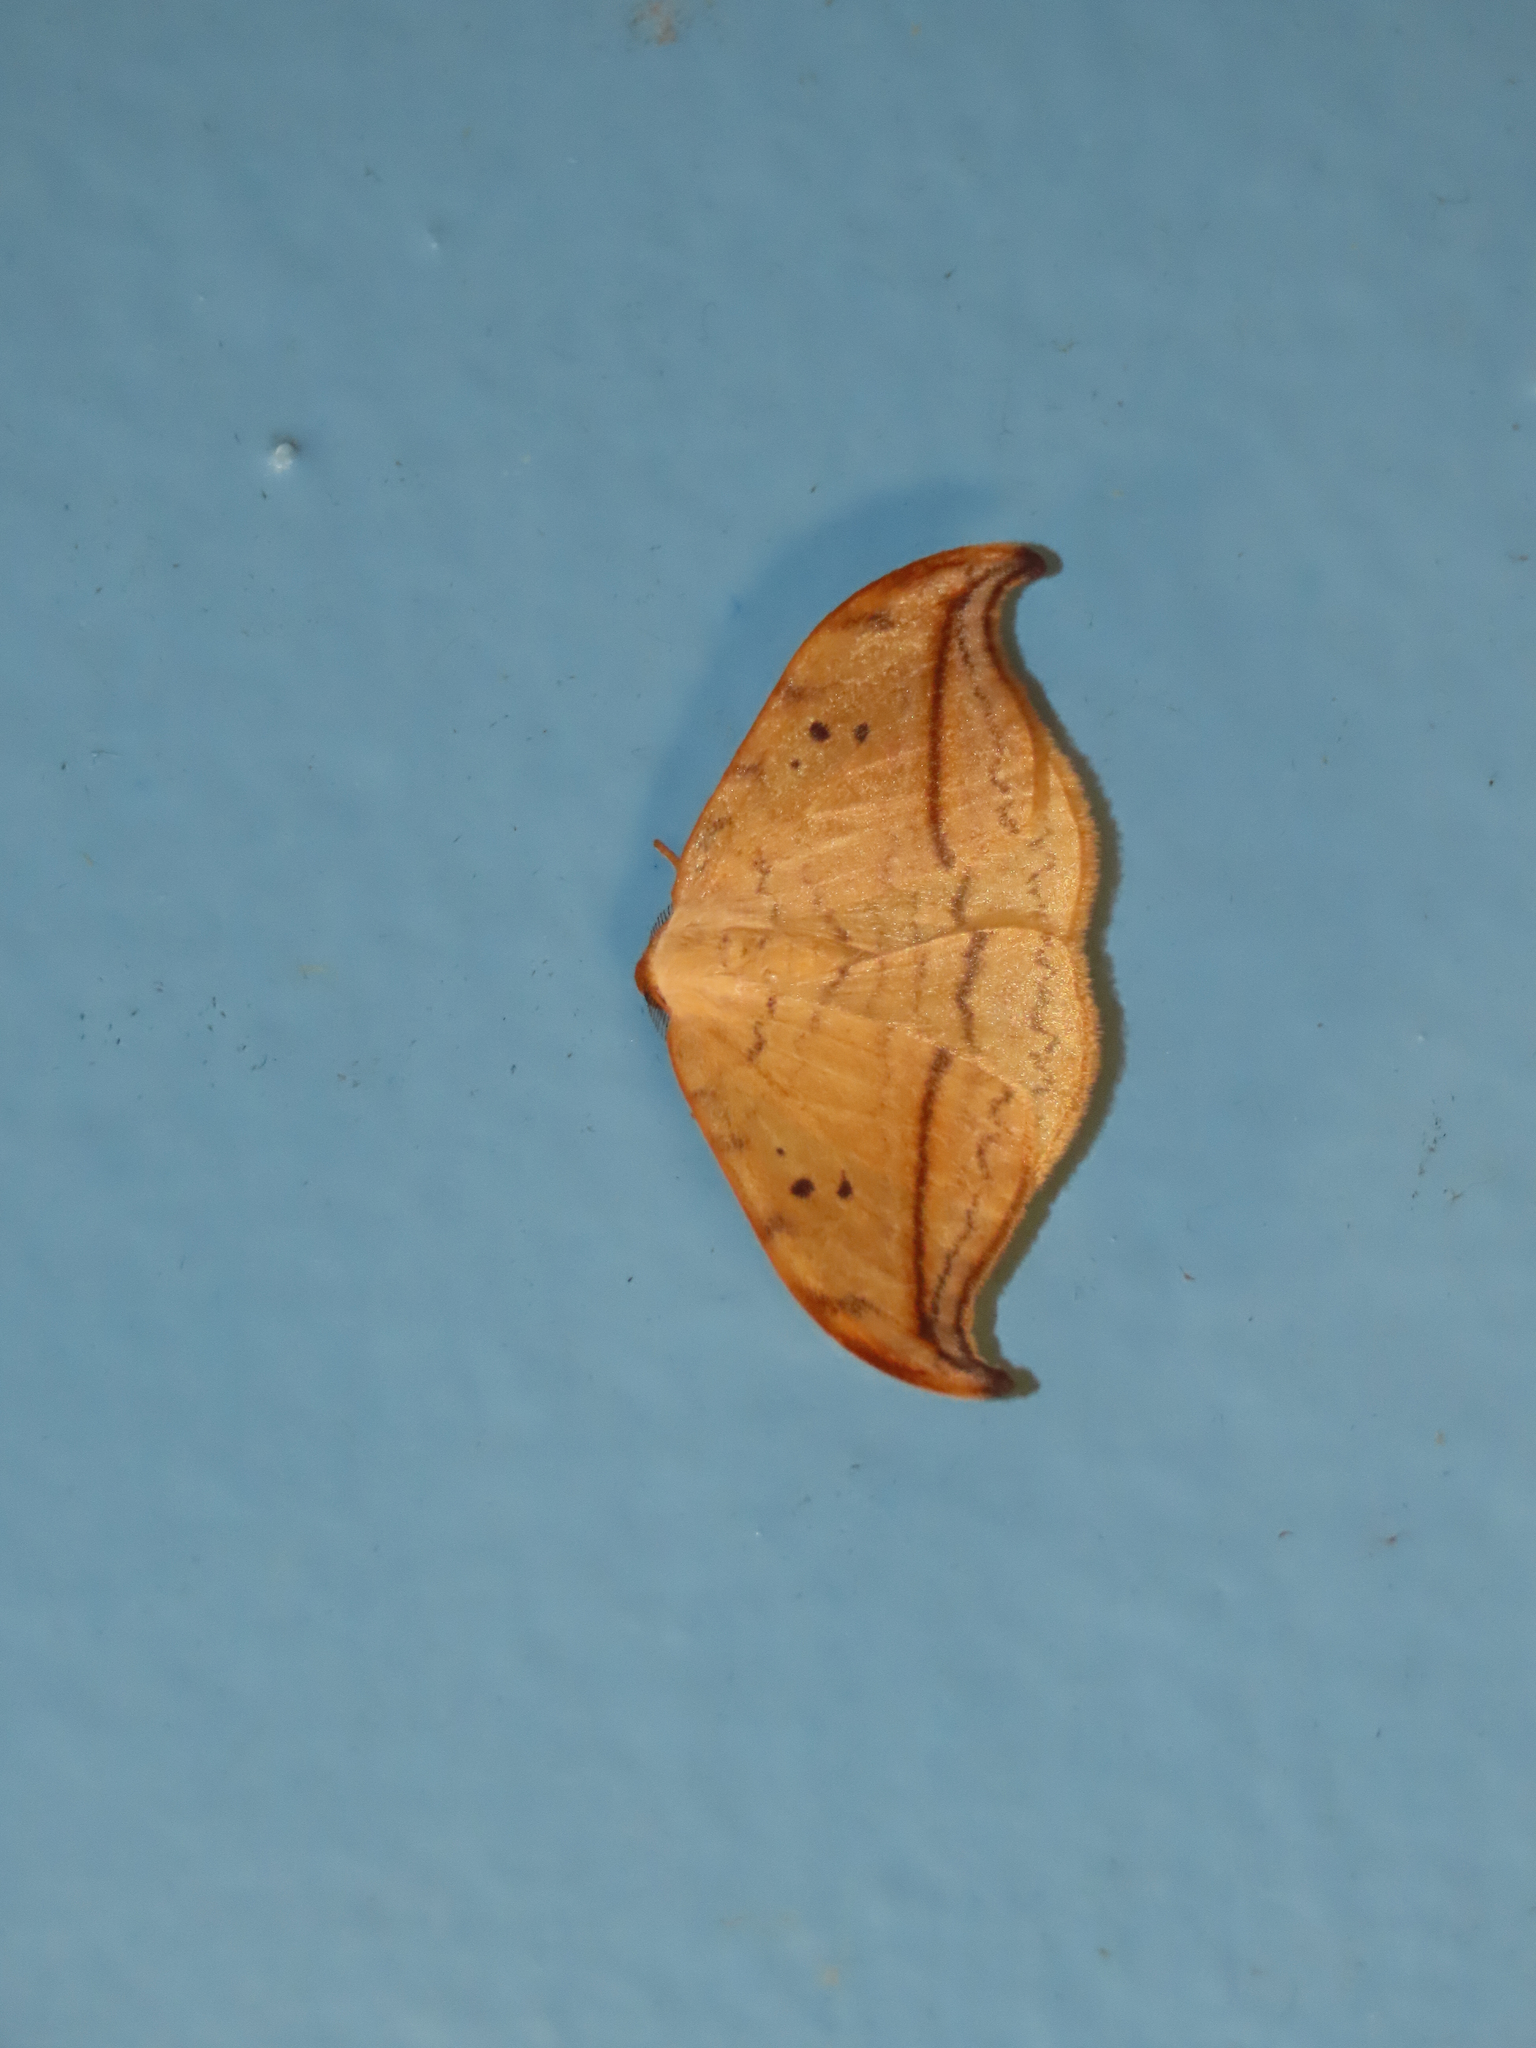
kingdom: Animalia
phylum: Arthropoda
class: Insecta
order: Lepidoptera
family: Drepanidae
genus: Drepana
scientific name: Drepana arcuata
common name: Arched hooktip moth
